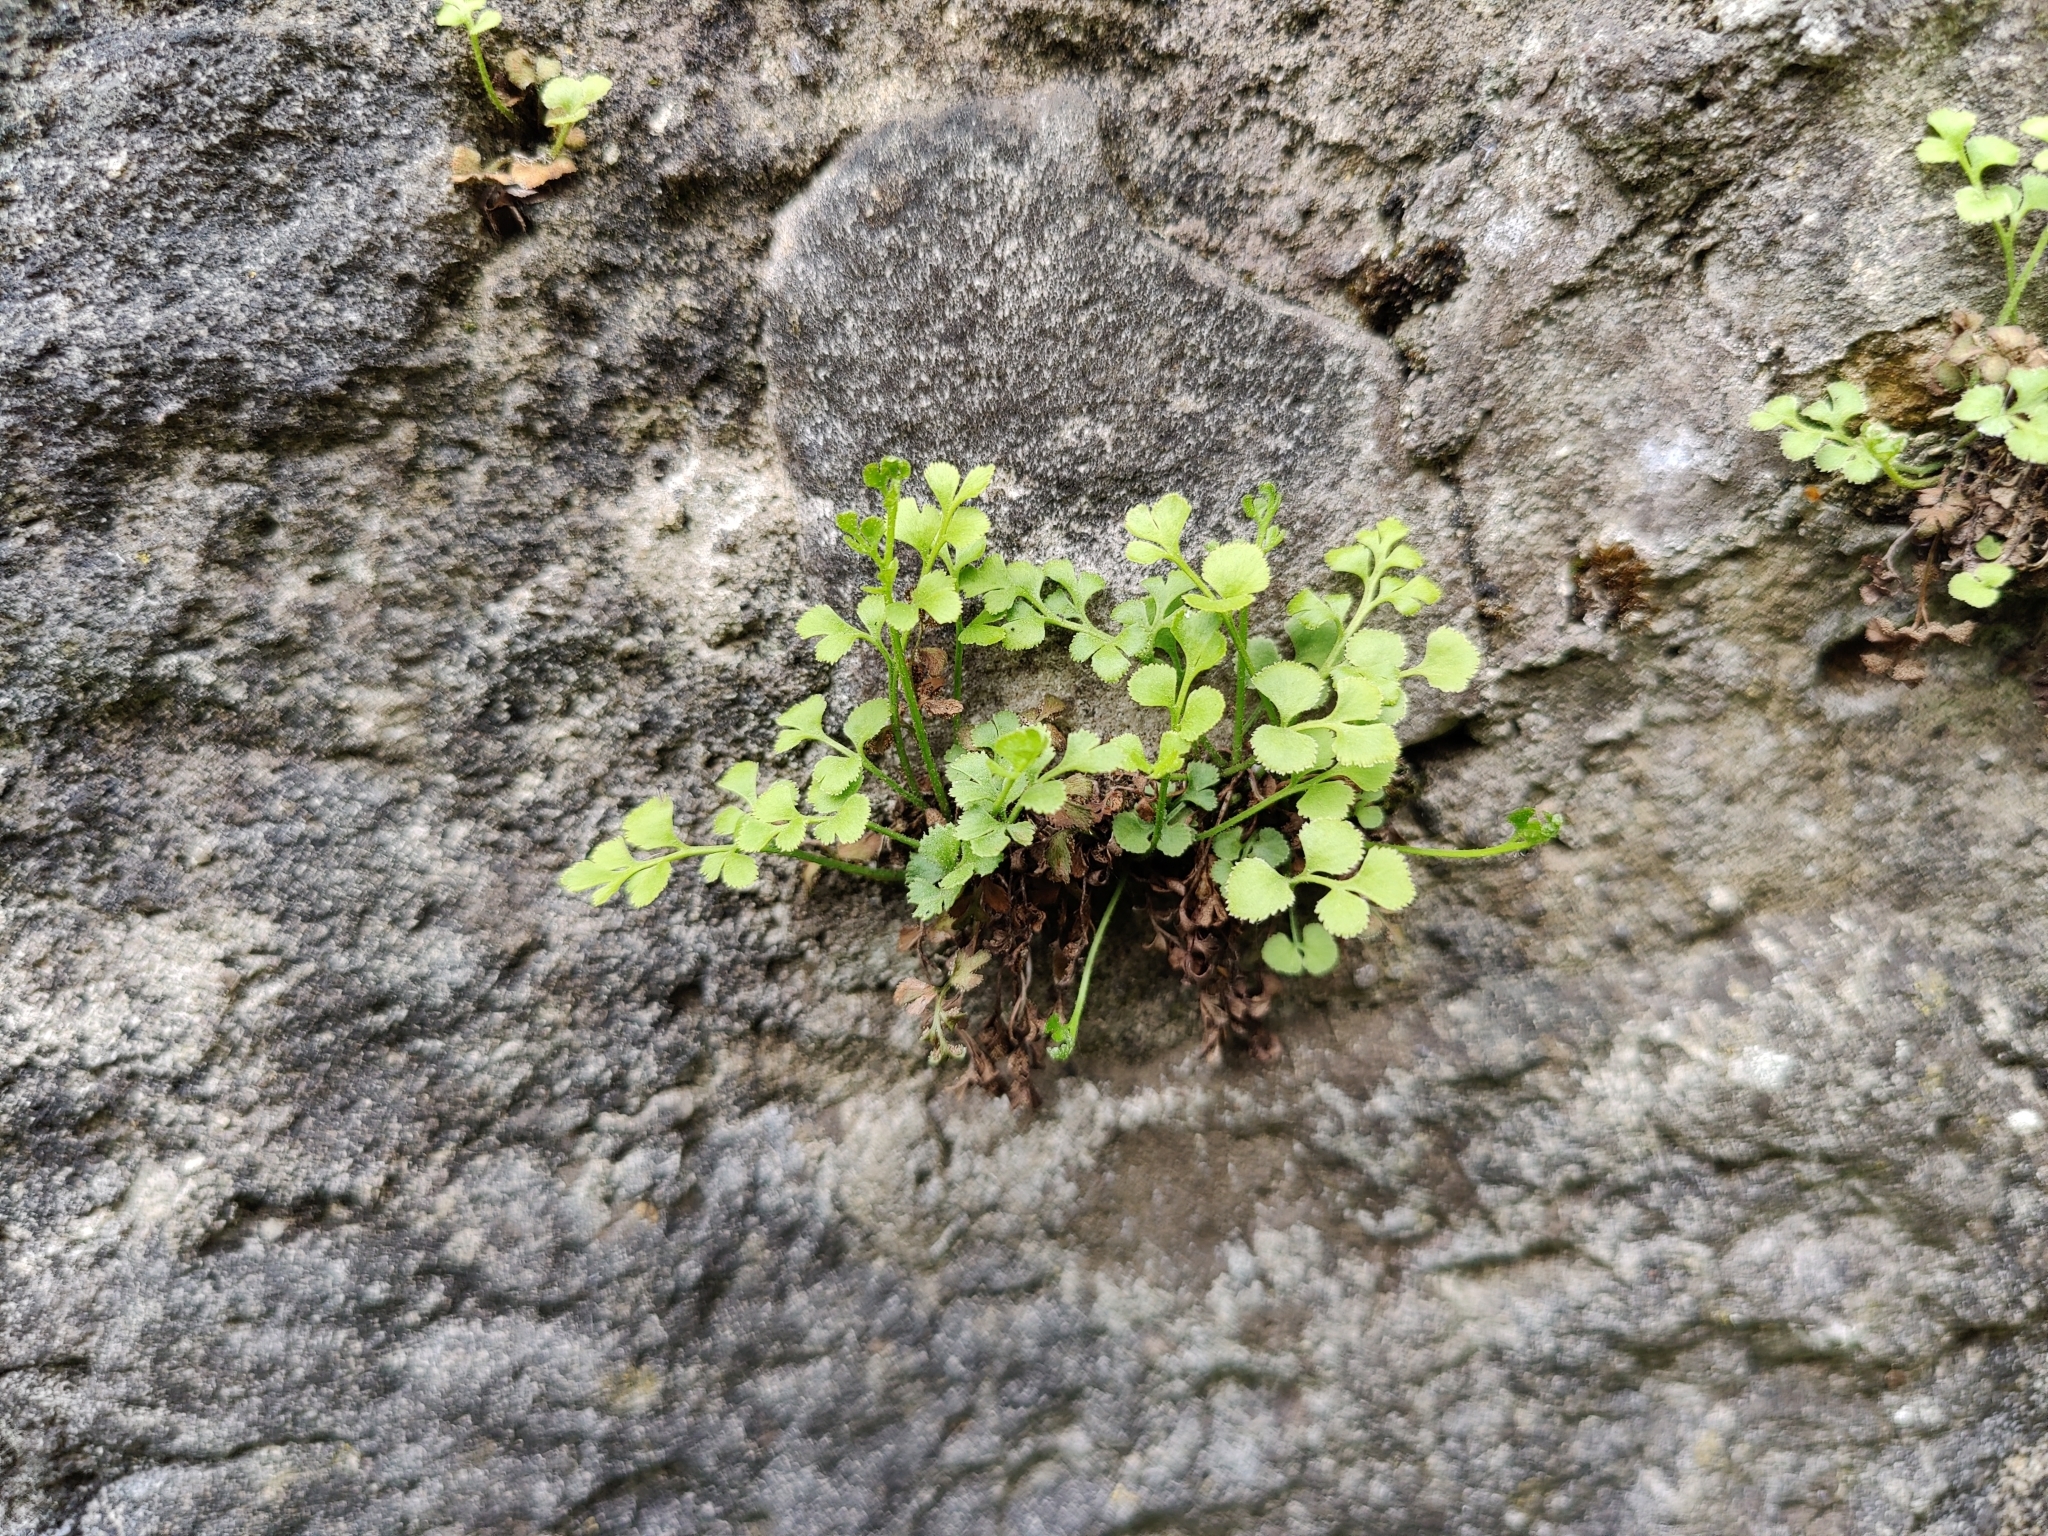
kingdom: Plantae
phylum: Tracheophyta
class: Polypodiopsida
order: Polypodiales
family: Aspleniaceae
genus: Asplenium
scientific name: Asplenium ruta-muraria
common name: Wall-rue
